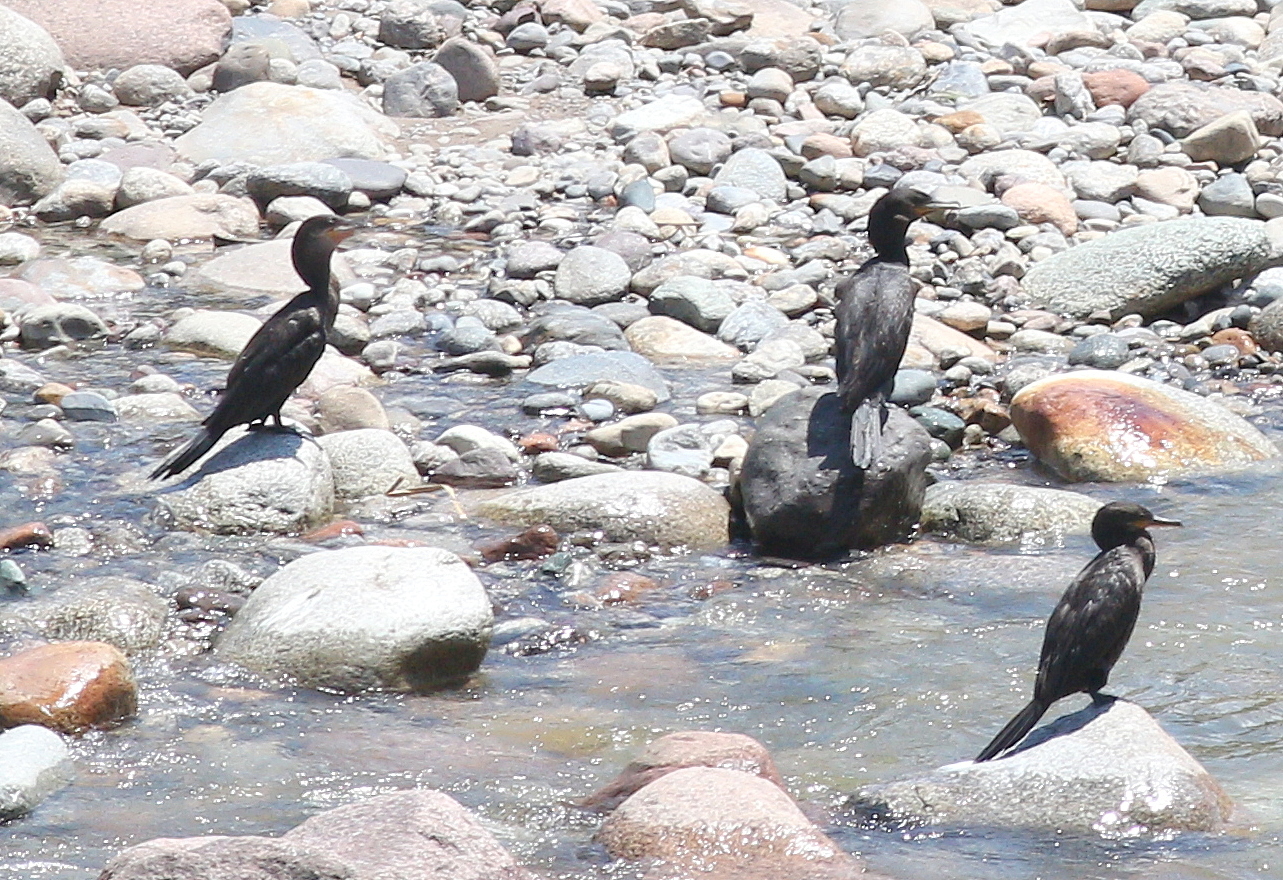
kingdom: Animalia
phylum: Chordata
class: Aves
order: Suliformes
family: Phalacrocoracidae
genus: Phalacrocorax
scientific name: Phalacrocorax brasilianus
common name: Neotropic cormorant
